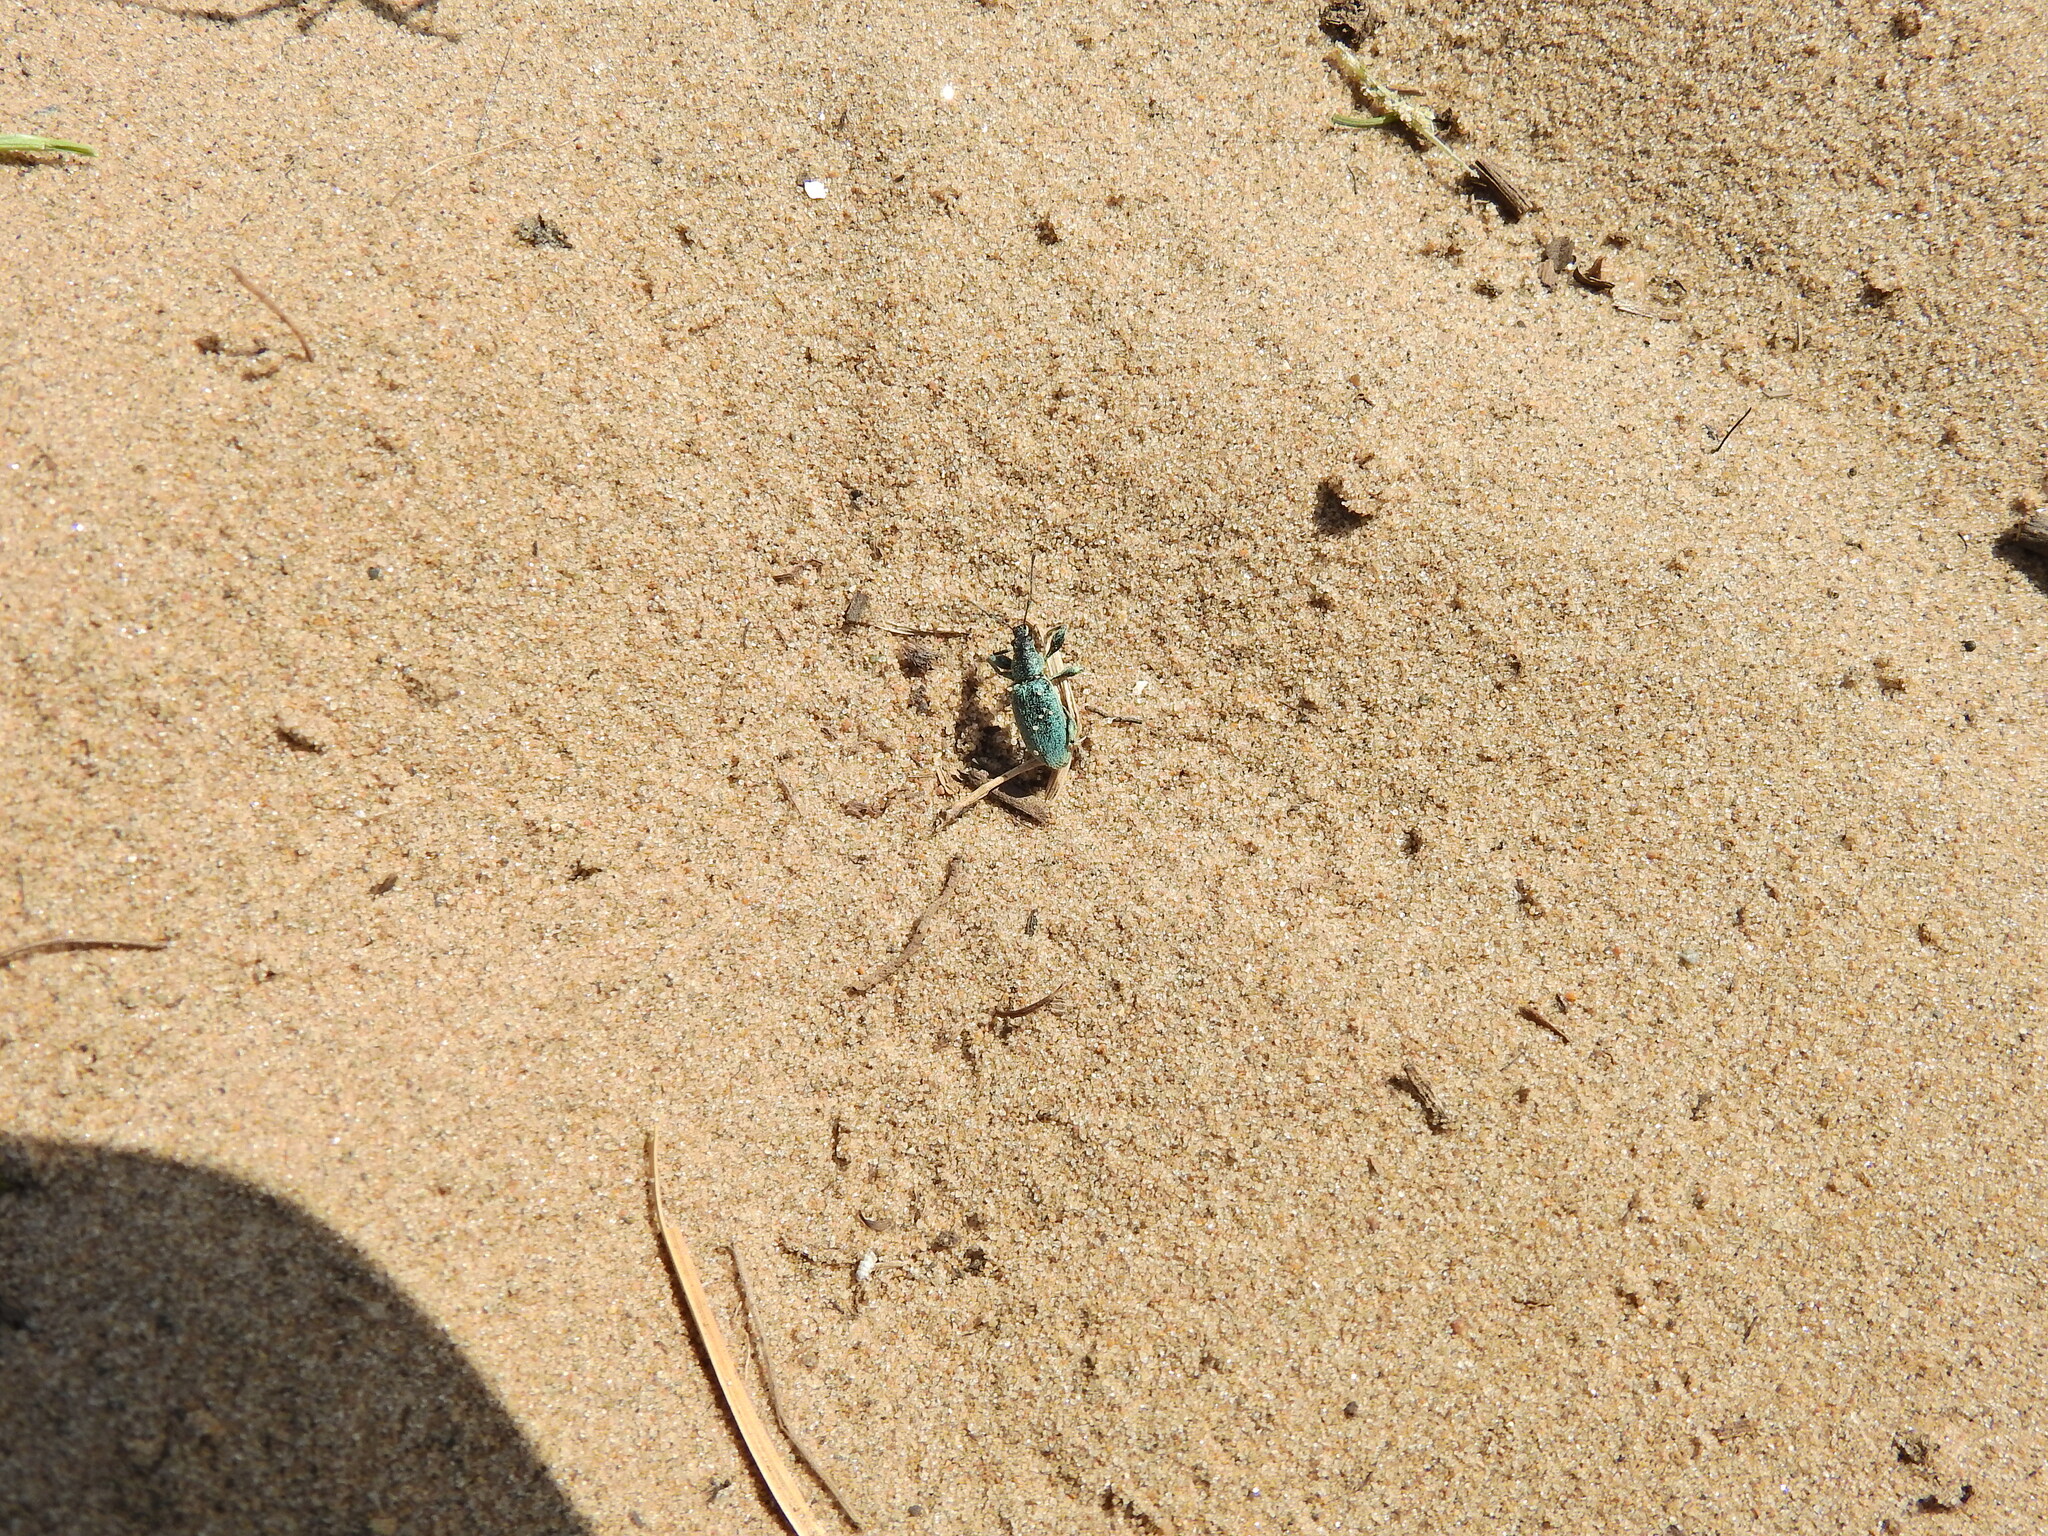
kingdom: Animalia
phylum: Arthropoda
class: Insecta
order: Coleoptera
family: Curculionidae
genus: Phyllobius
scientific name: Phyllobius pomaceus
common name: Green nettle weevil
